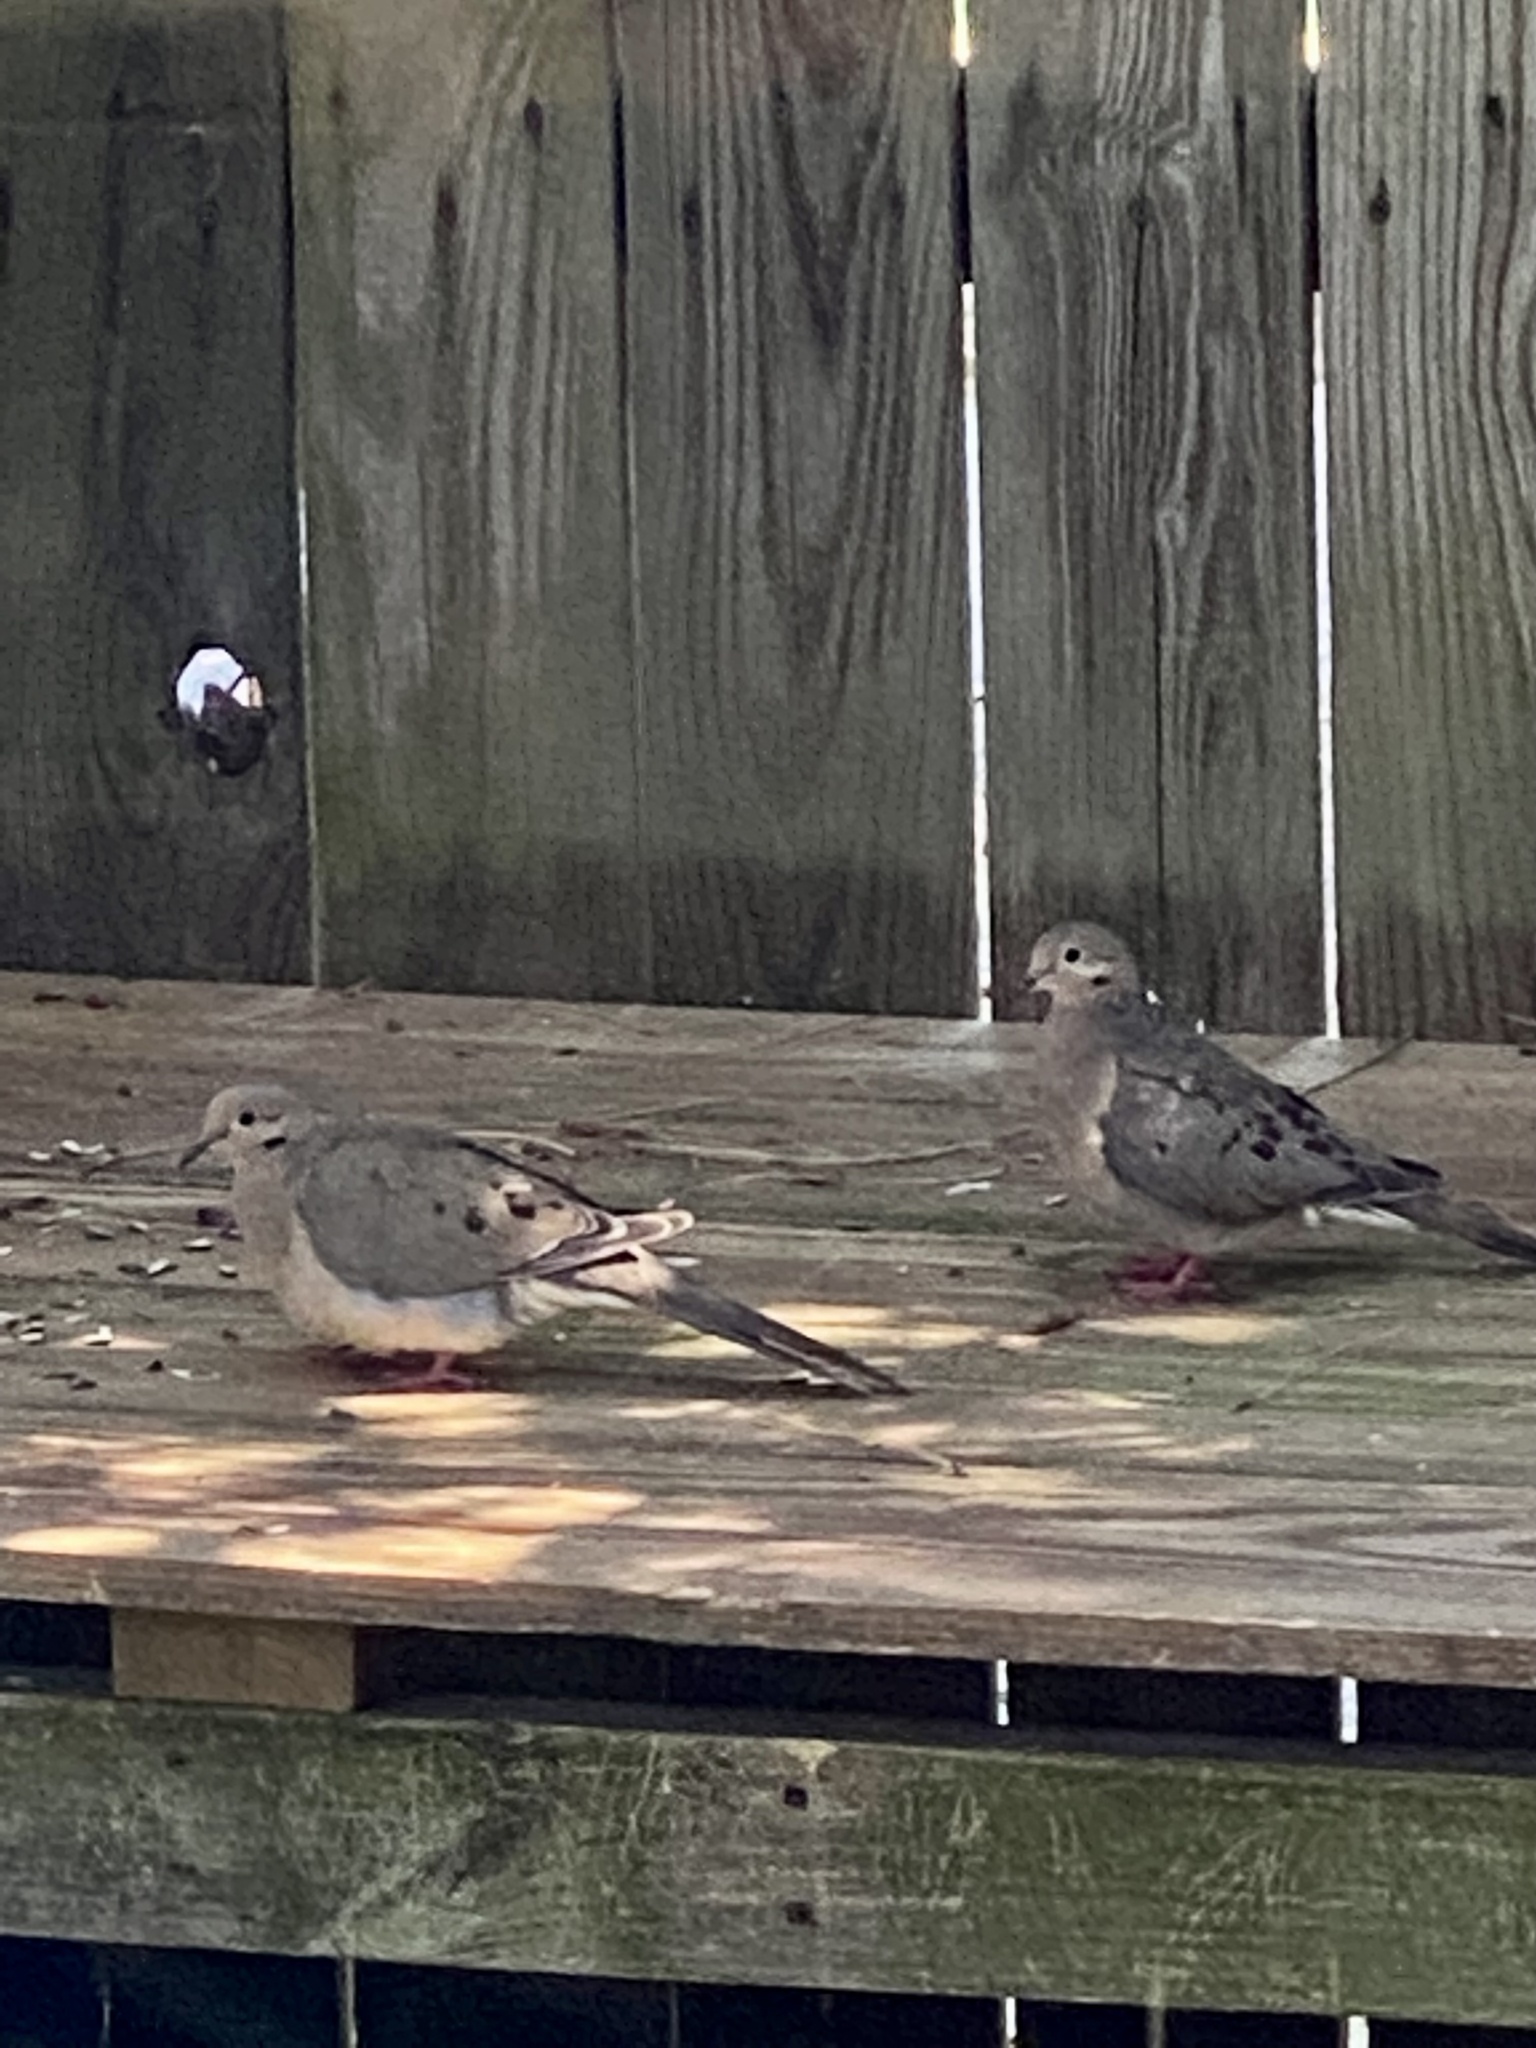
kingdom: Animalia
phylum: Chordata
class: Aves
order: Columbiformes
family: Columbidae
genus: Zenaida
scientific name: Zenaida macroura
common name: Mourning dove
